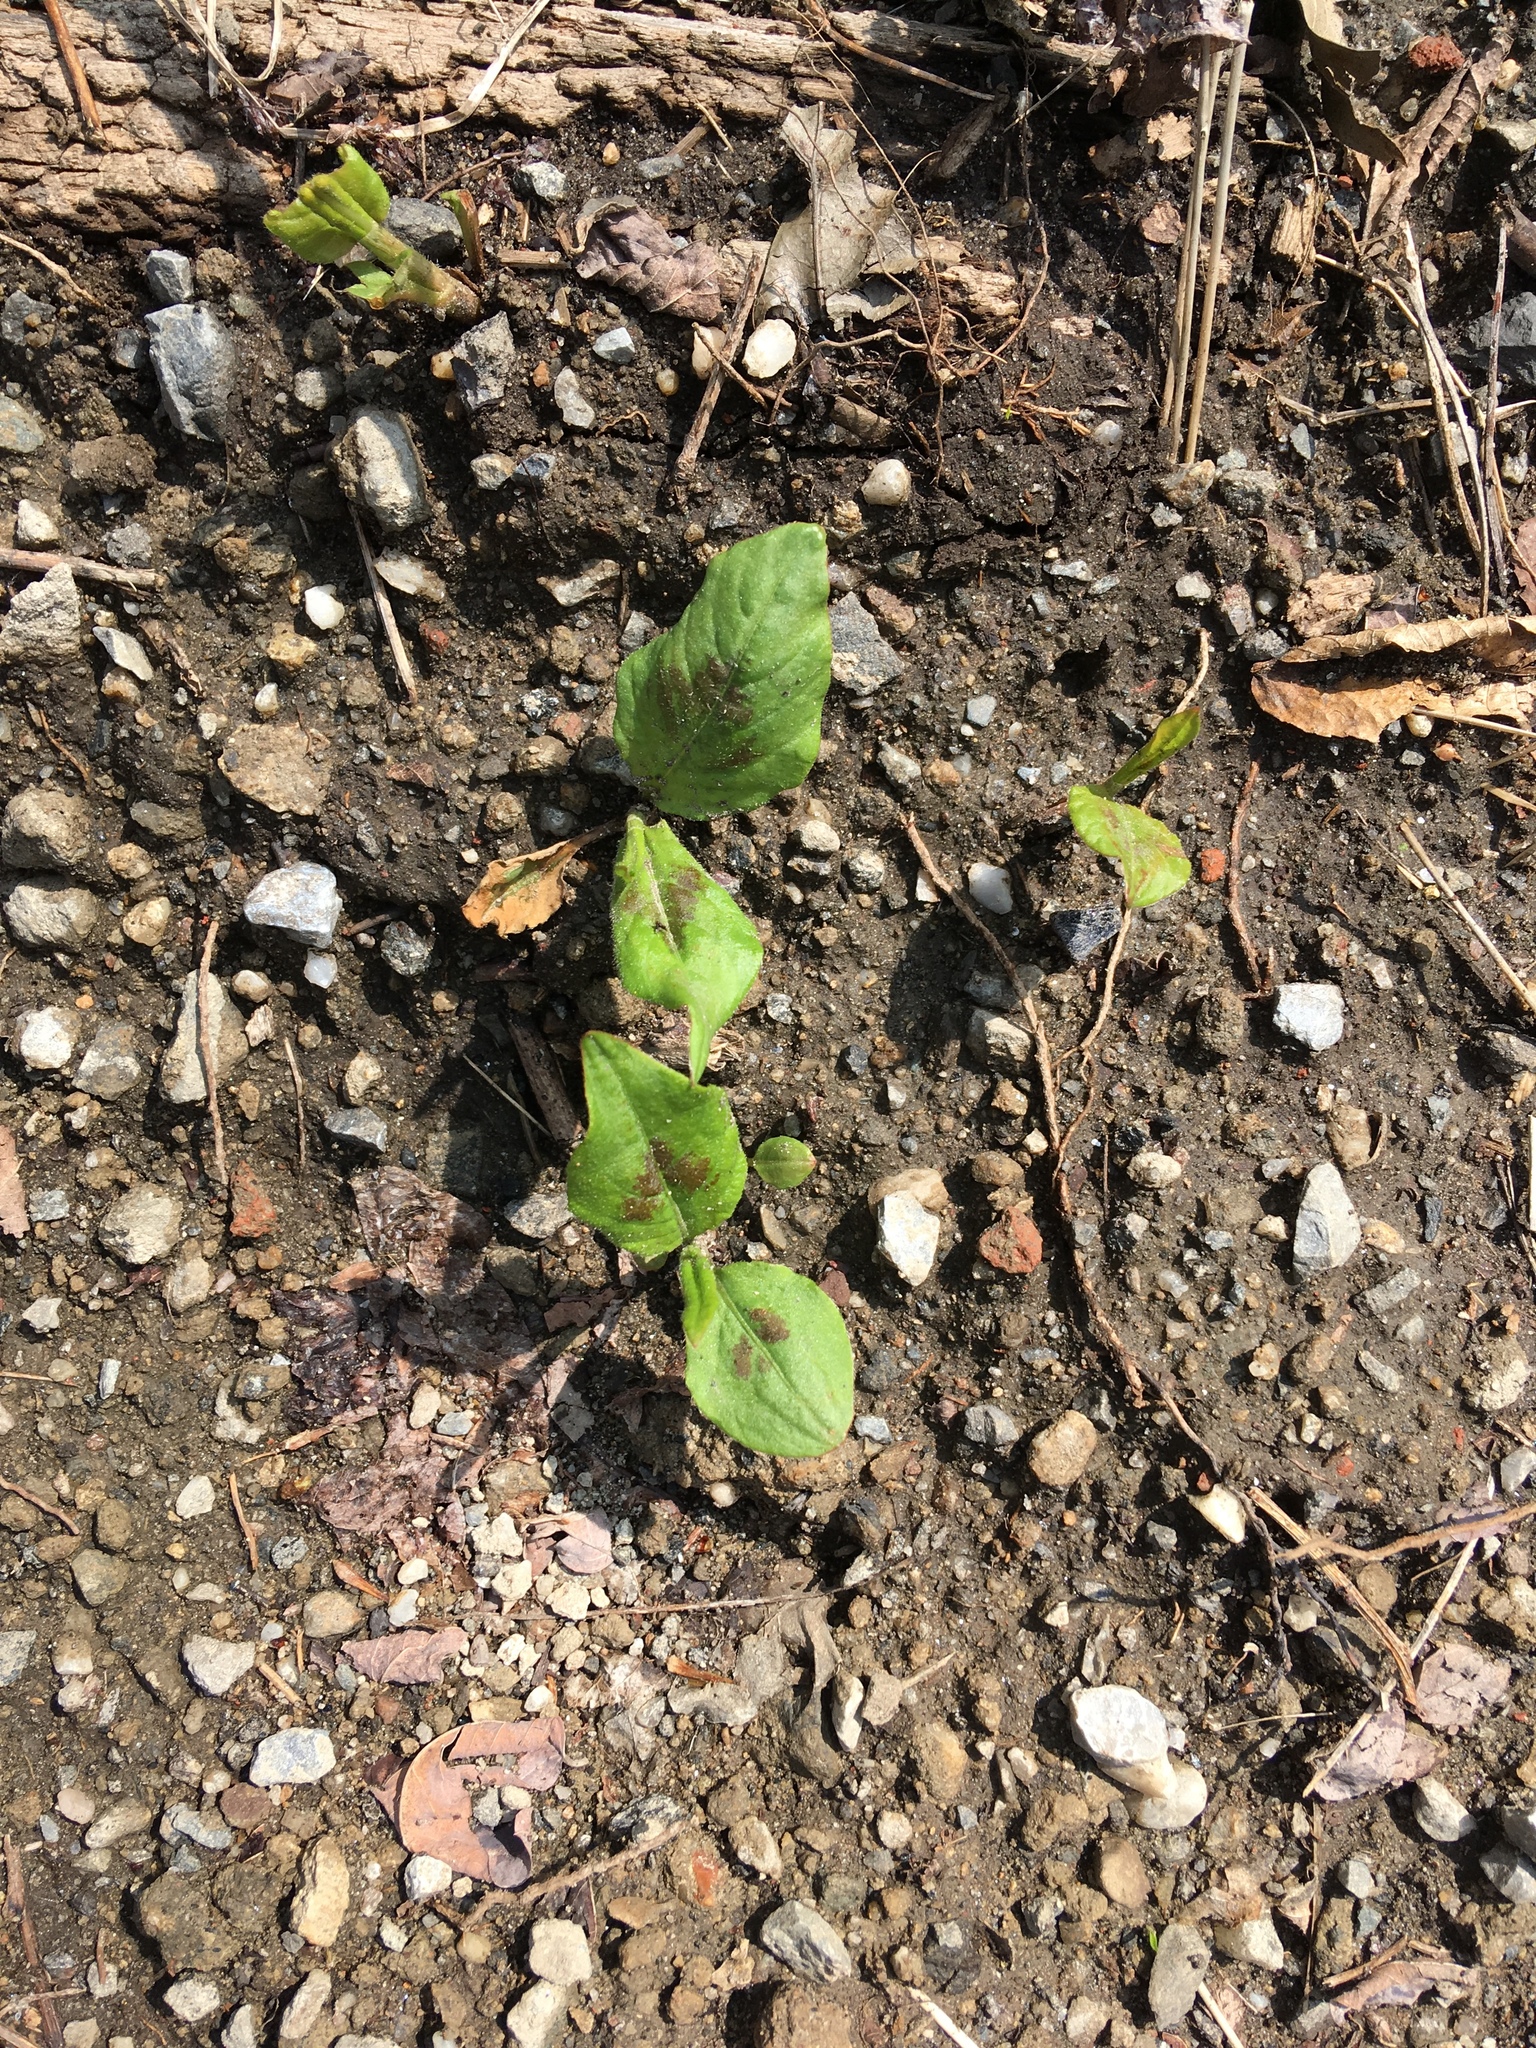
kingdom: Plantae
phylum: Tracheophyta
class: Magnoliopsida
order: Caryophyllales
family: Polygonaceae
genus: Persicaria
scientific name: Persicaria virginiana
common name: Jumpseed
